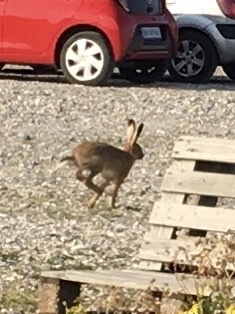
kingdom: Animalia
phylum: Chordata
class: Mammalia
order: Lagomorpha
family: Leporidae
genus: Lepus
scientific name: Lepus europaeus
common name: European hare
